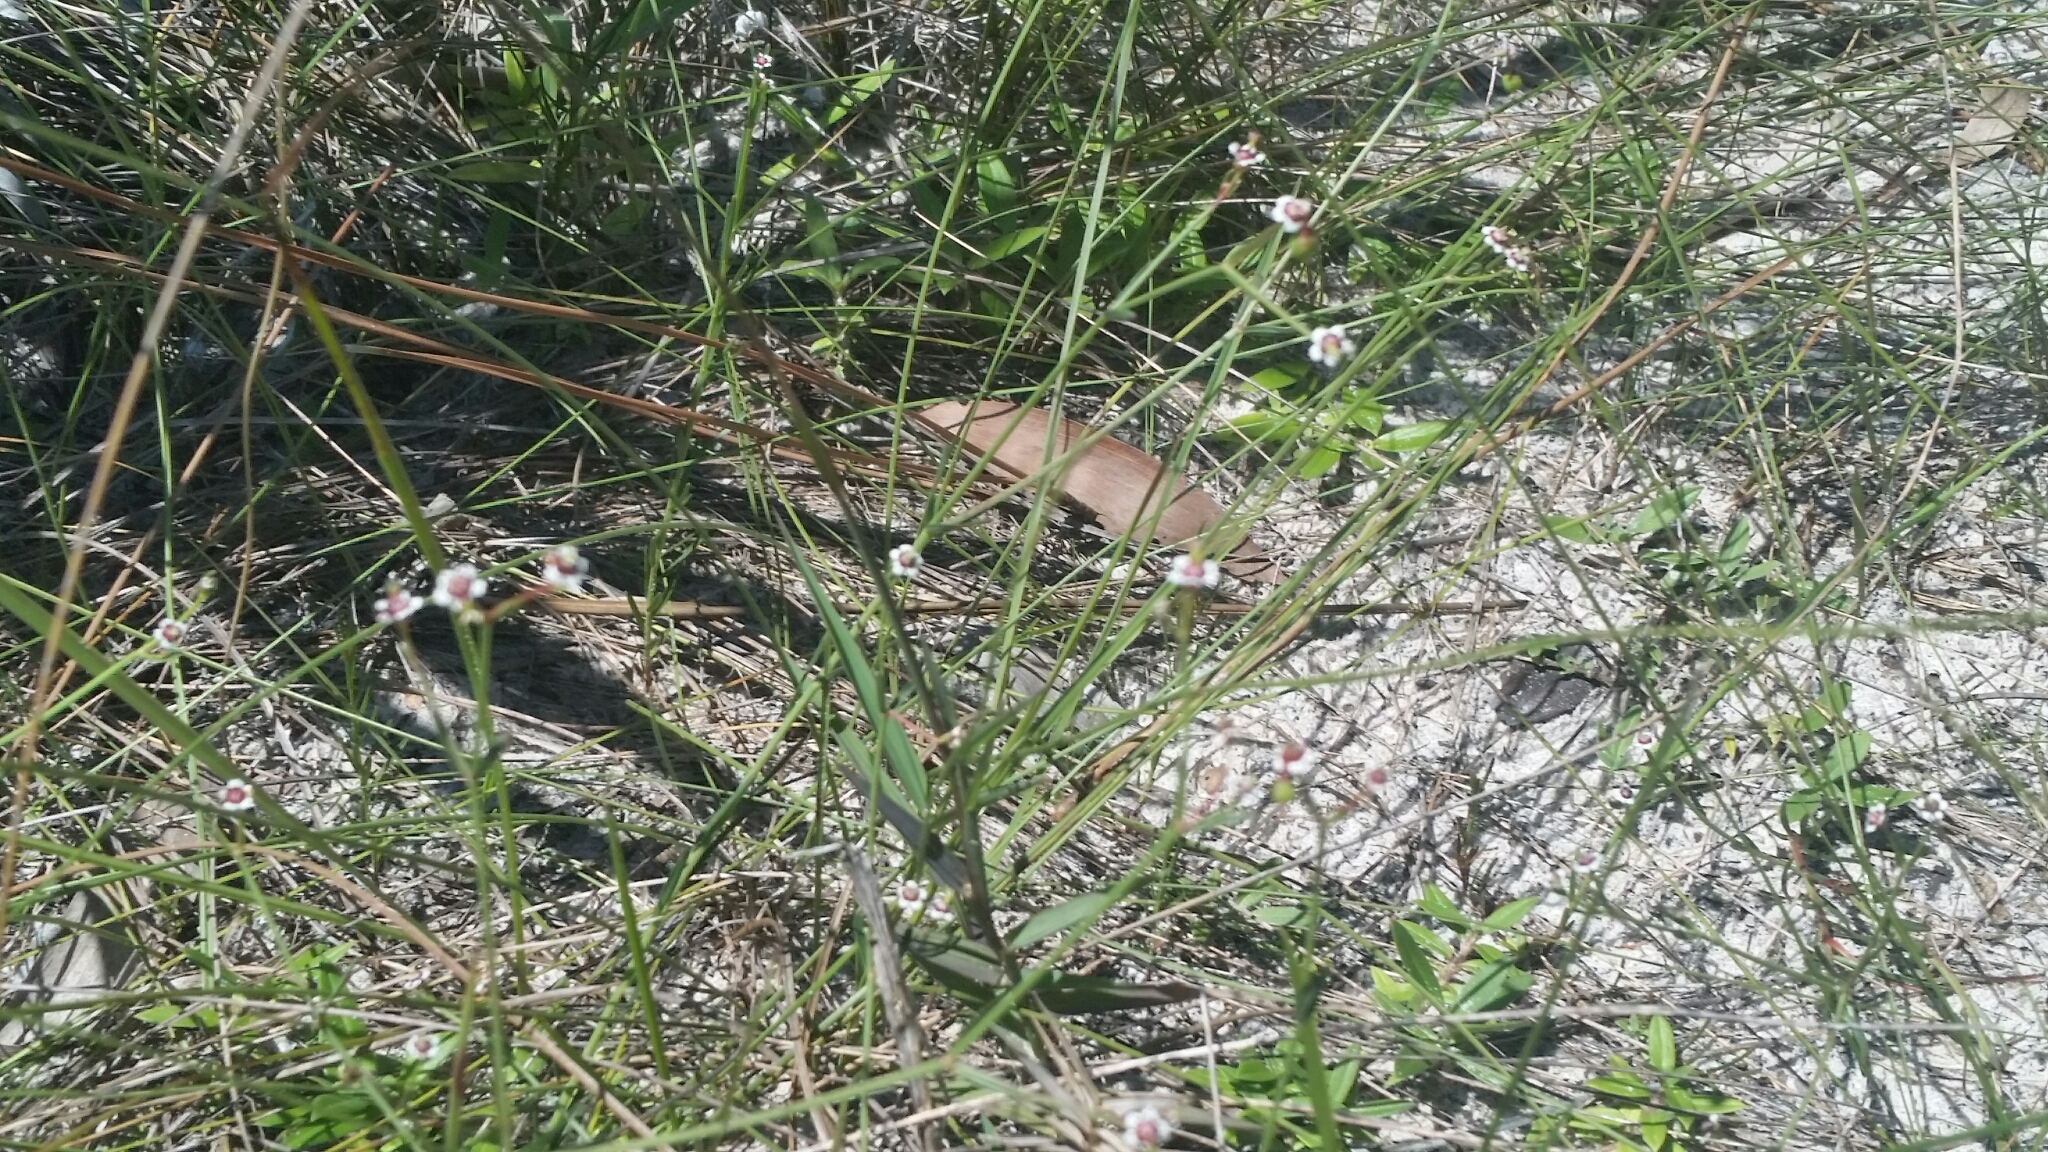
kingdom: Plantae
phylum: Tracheophyta
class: Magnoliopsida
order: Malpighiales
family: Euphorbiaceae
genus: Euphorbia
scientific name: Euphorbia polyphylla
